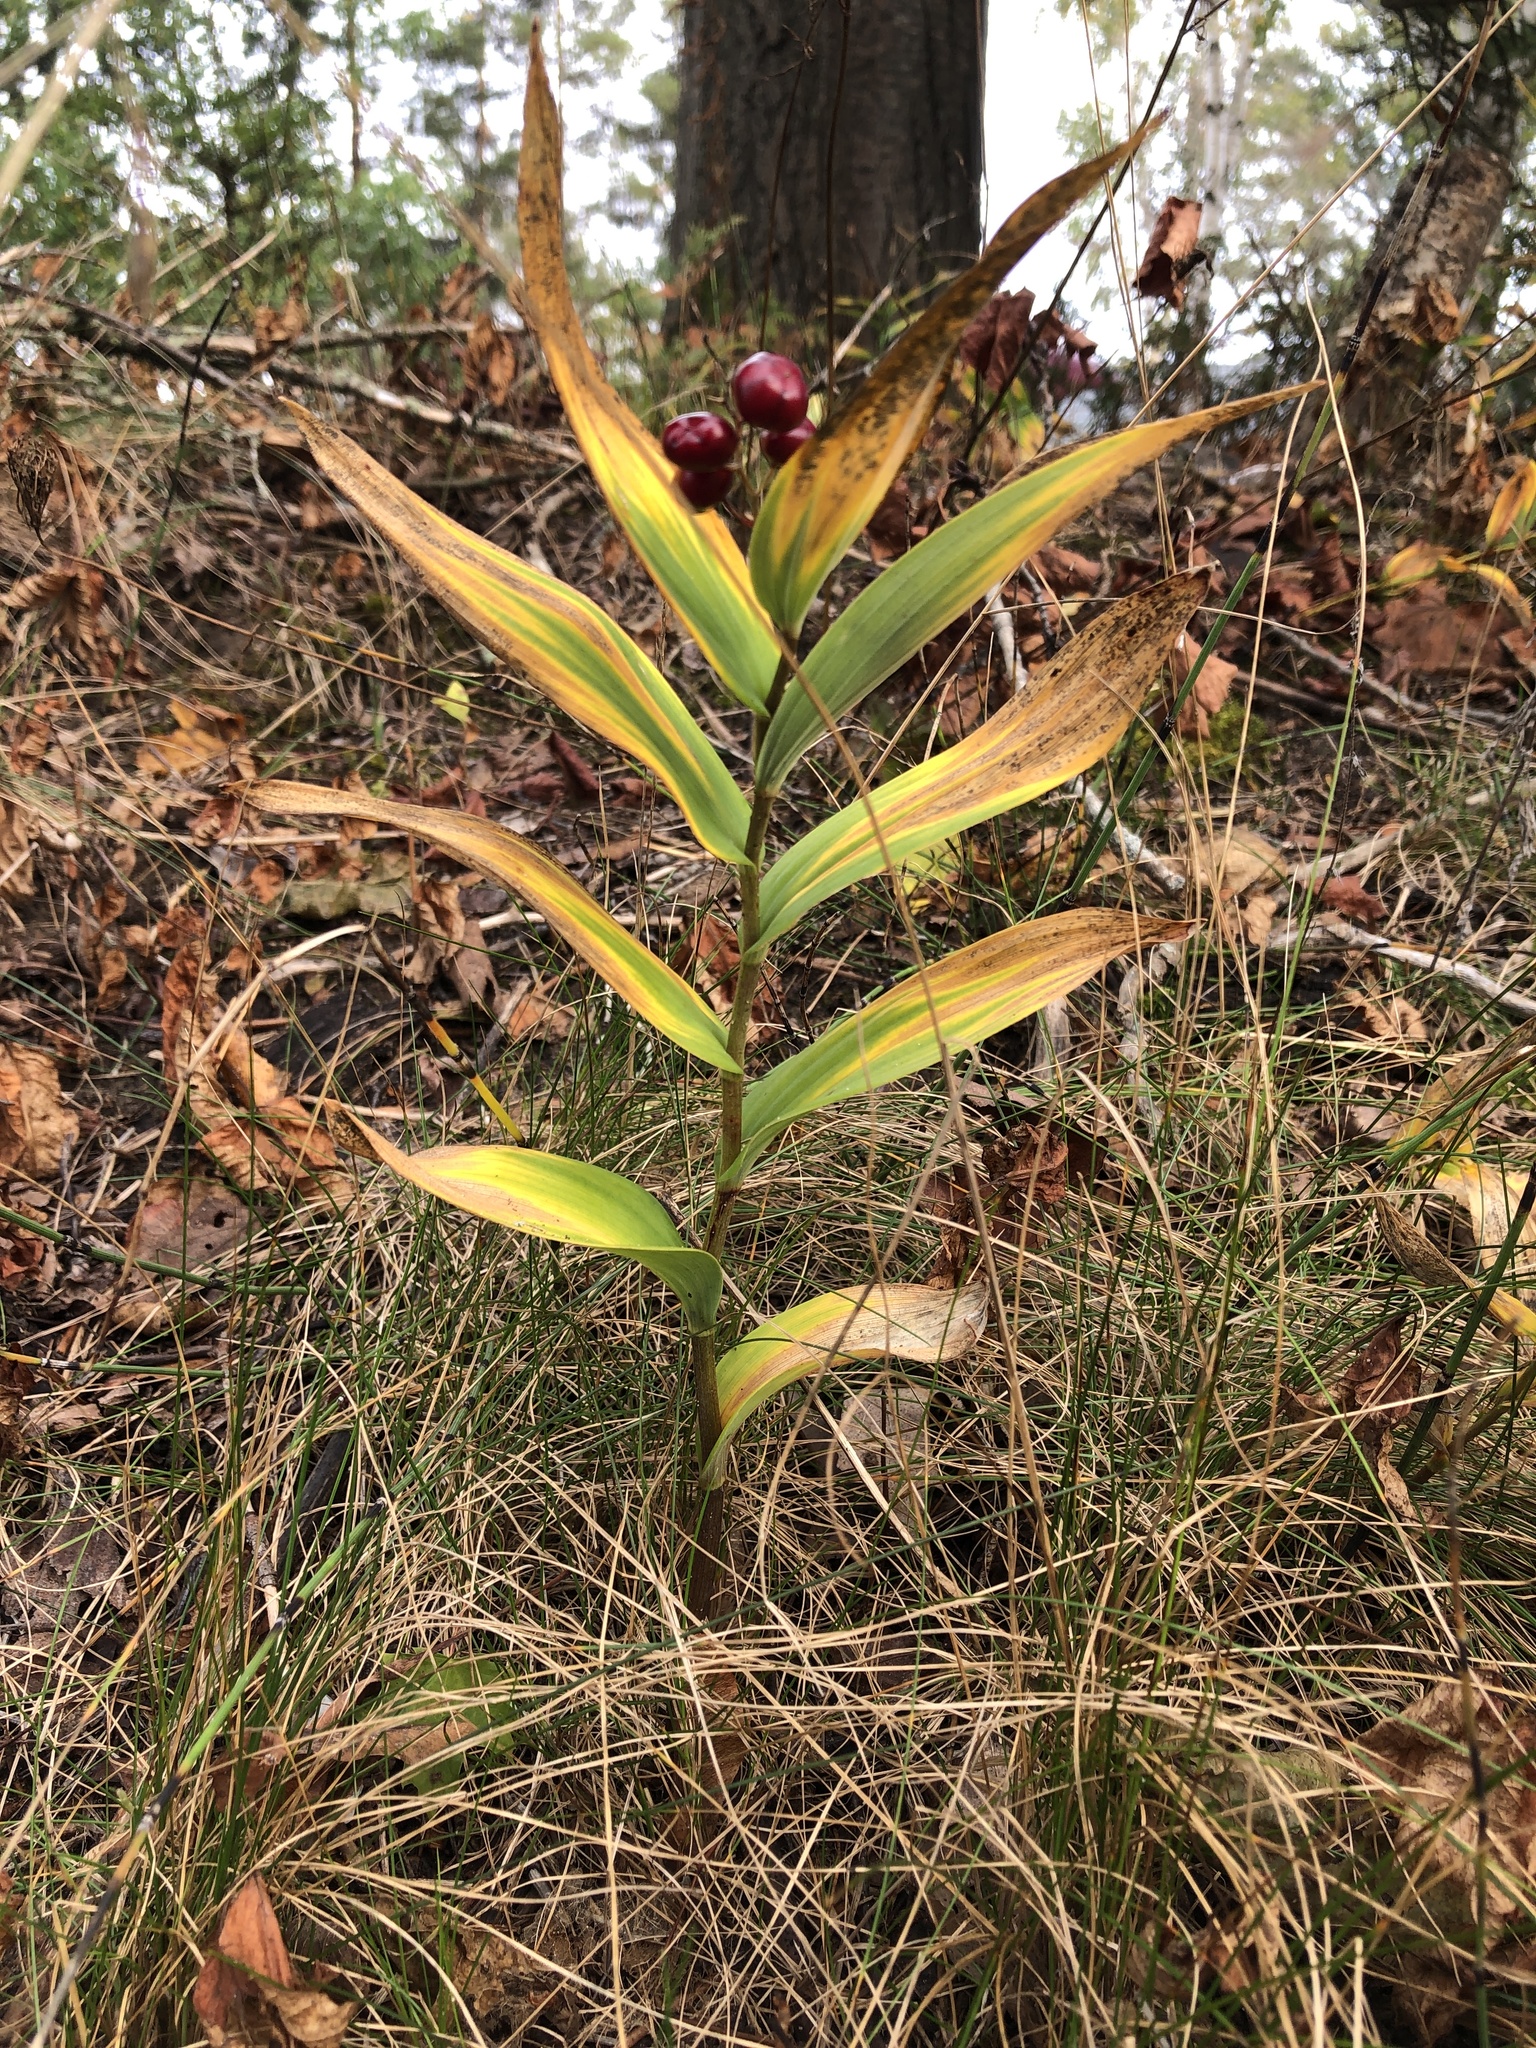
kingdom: Plantae
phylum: Tracheophyta
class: Liliopsida
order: Asparagales
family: Asparagaceae
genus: Maianthemum
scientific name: Maianthemum stellatum
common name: Little false solomon's seal
